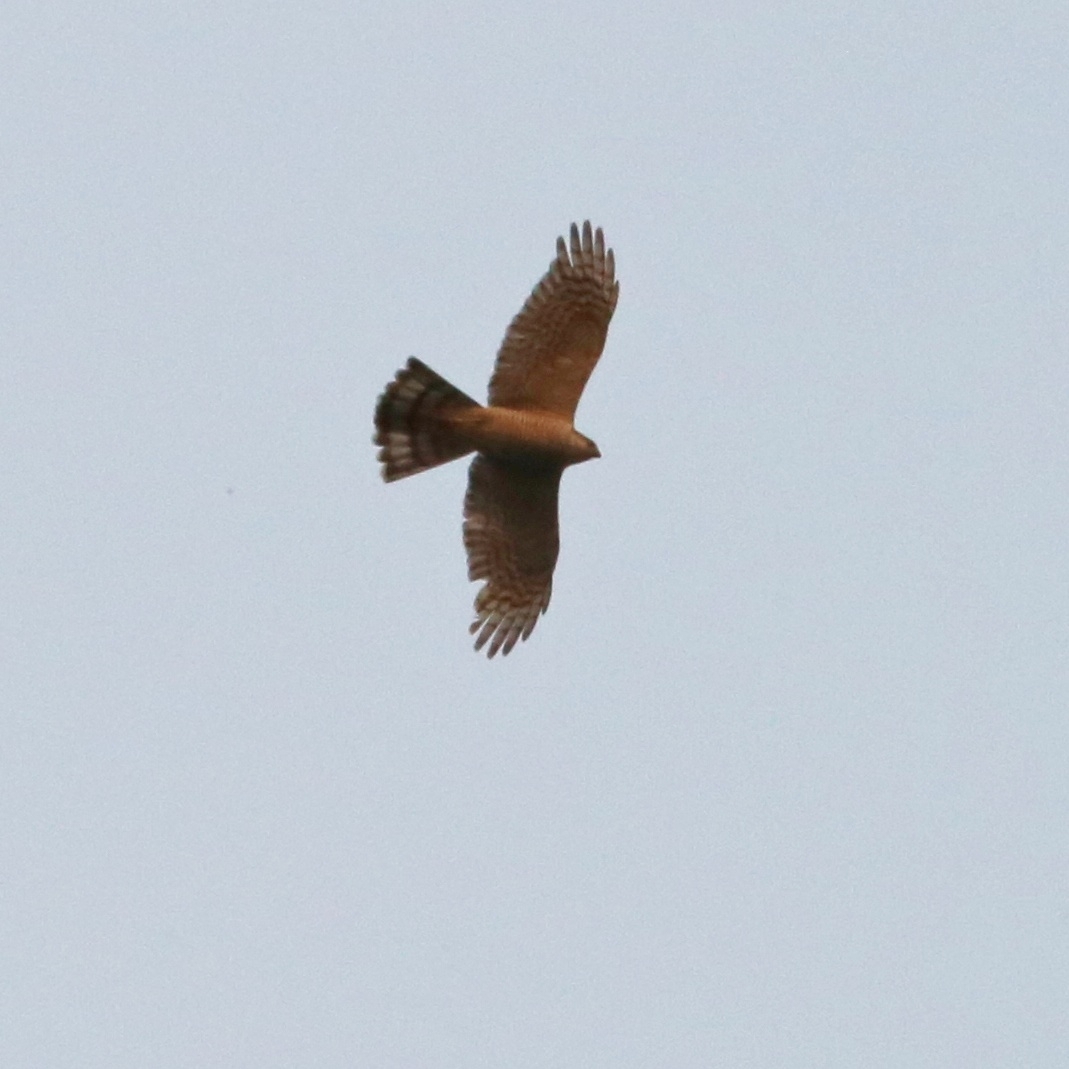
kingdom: Animalia
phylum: Chordata
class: Aves
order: Accipitriformes
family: Accipitridae
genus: Accipiter
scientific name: Accipiter nisus
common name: Eurasian sparrowhawk
